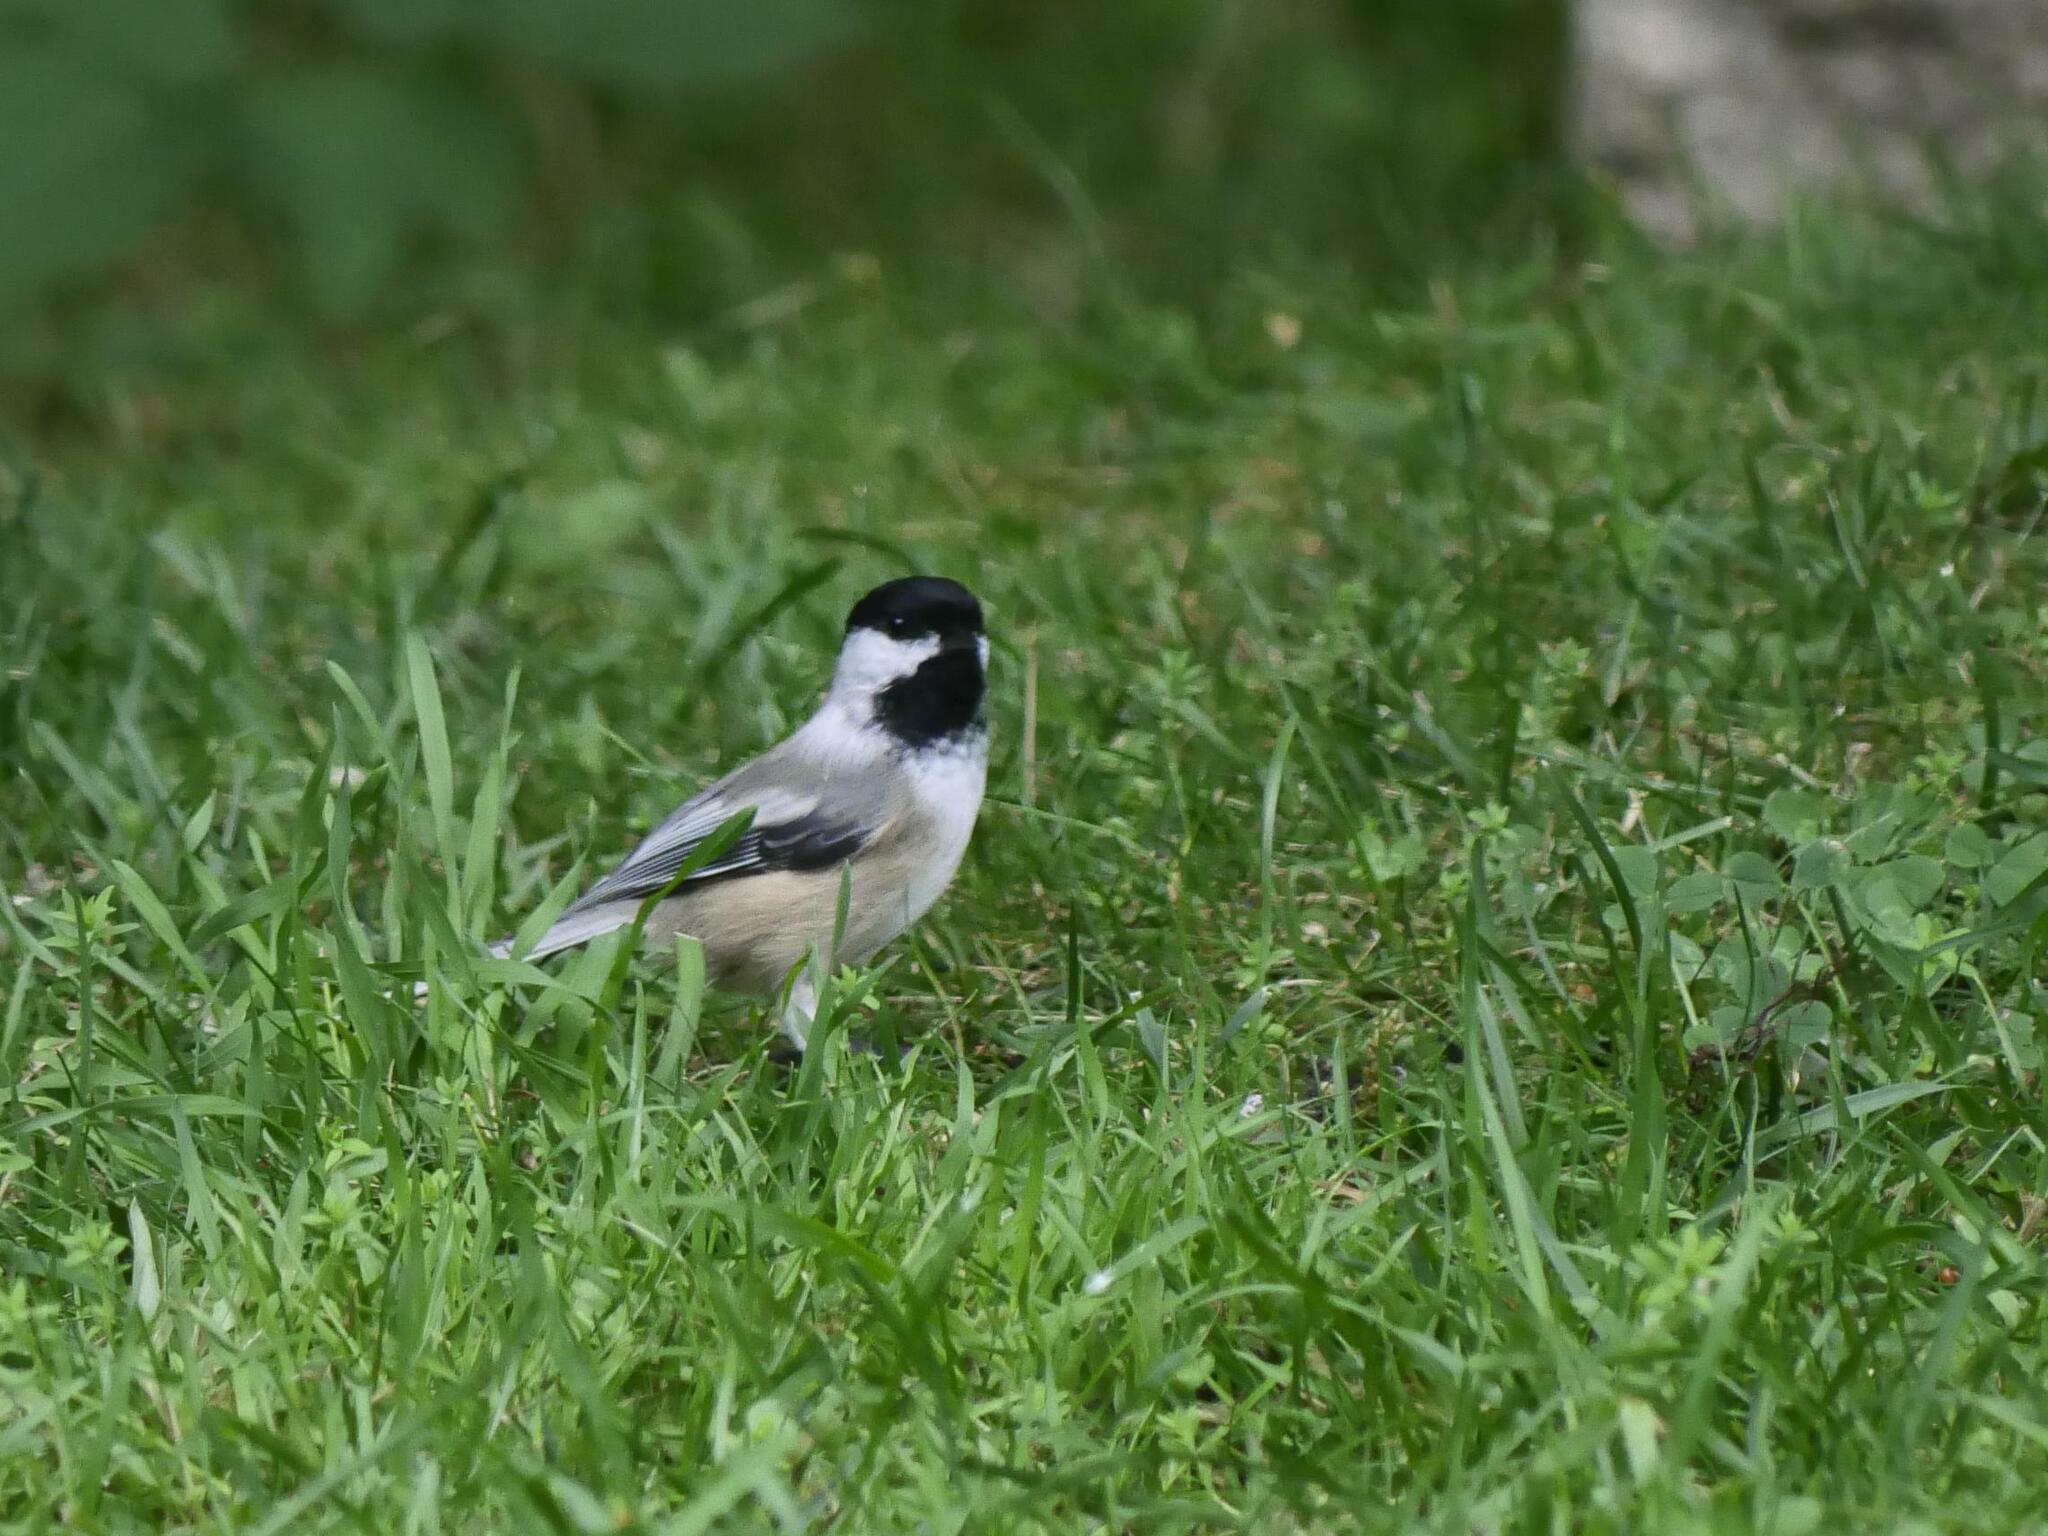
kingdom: Animalia
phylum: Chordata
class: Aves
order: Passeriformes
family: Paridae
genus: Poecile
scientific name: Poecile atricapillus
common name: Black-capped chickadee
